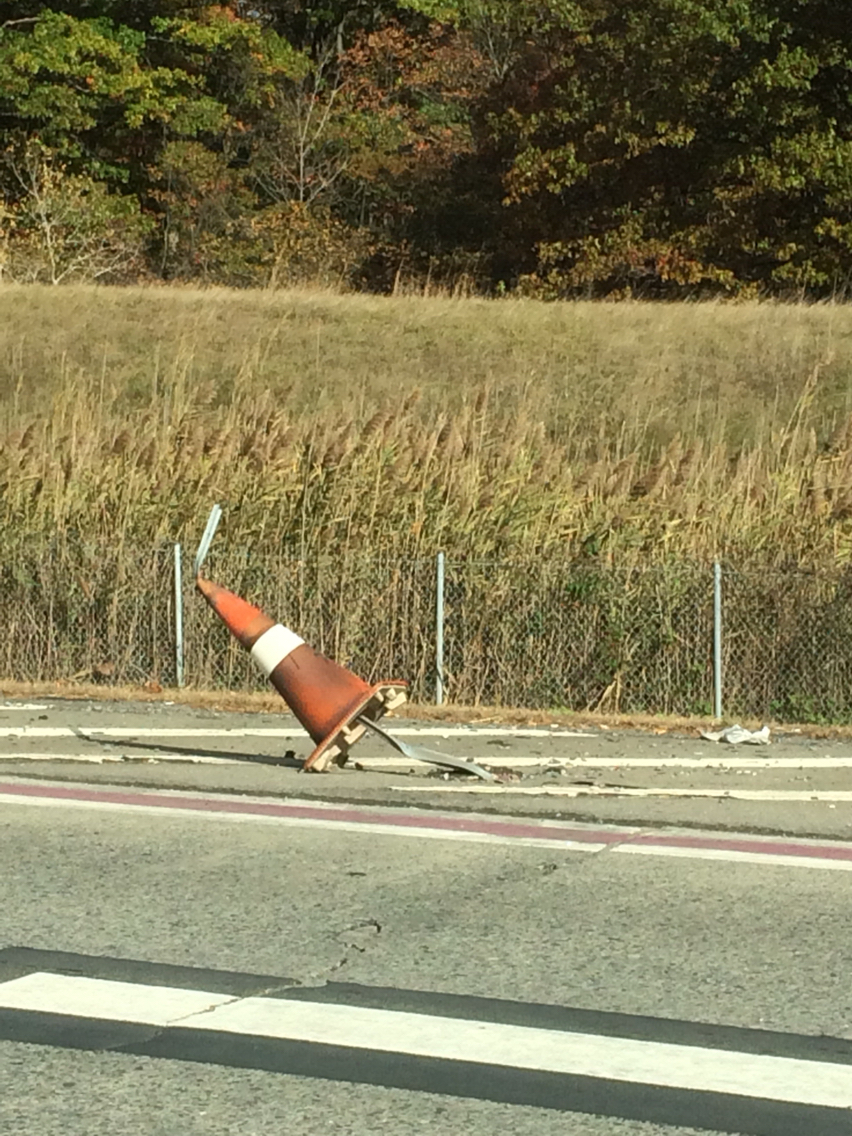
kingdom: Plantae
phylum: Tracheophyta
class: Liliopsida
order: Poales
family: Poaceae
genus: Phragmites
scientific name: Phragmites australis
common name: Common reed
